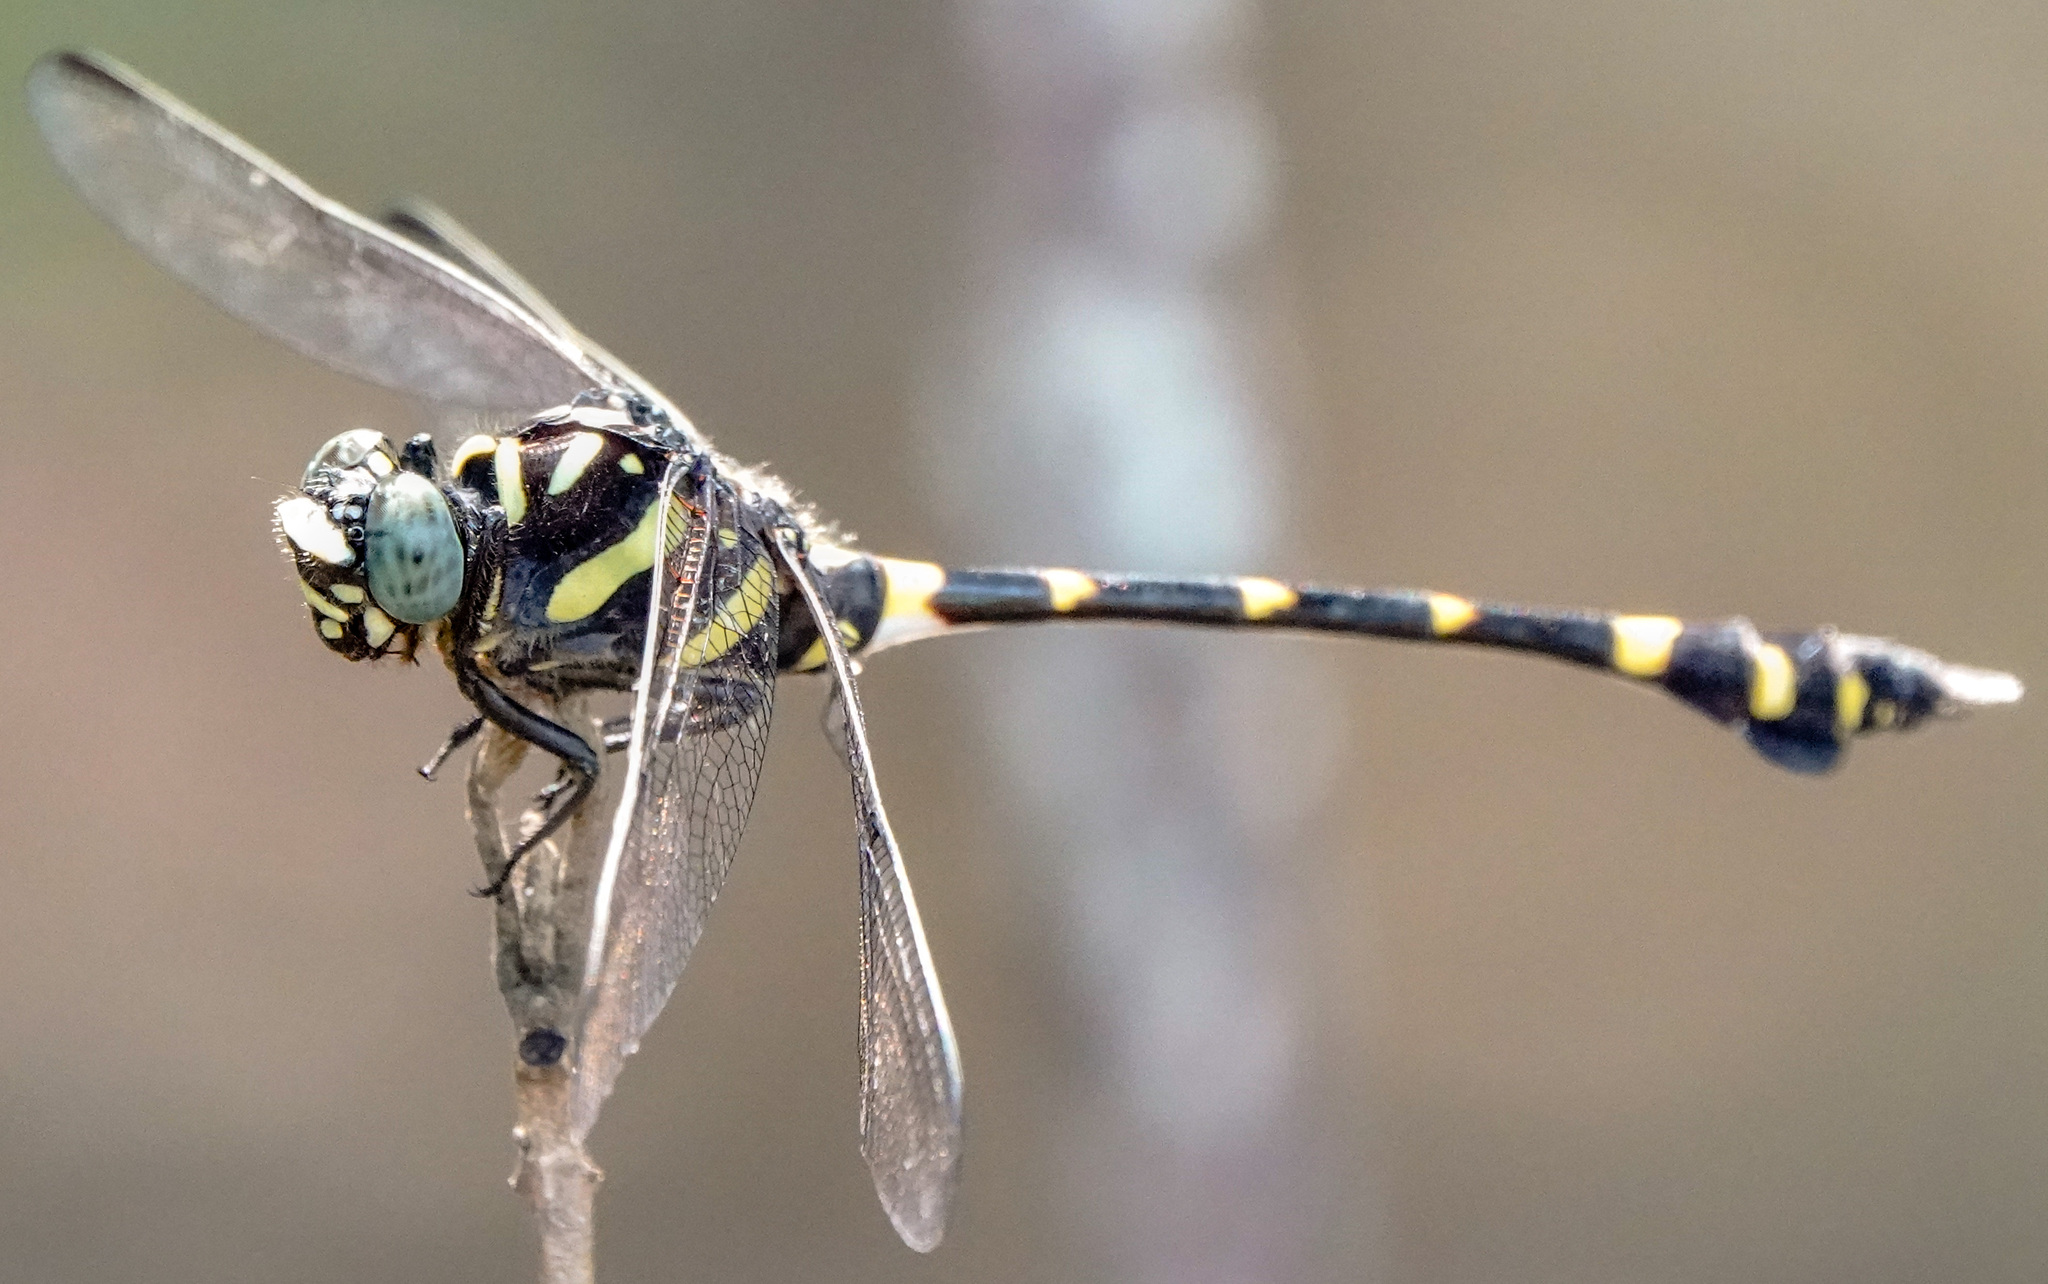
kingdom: Animalia
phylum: Arthropoda
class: Insecta
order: Odonata
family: Gomphidae
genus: Ictinogomphus
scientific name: Ictinogomphus decoratus
